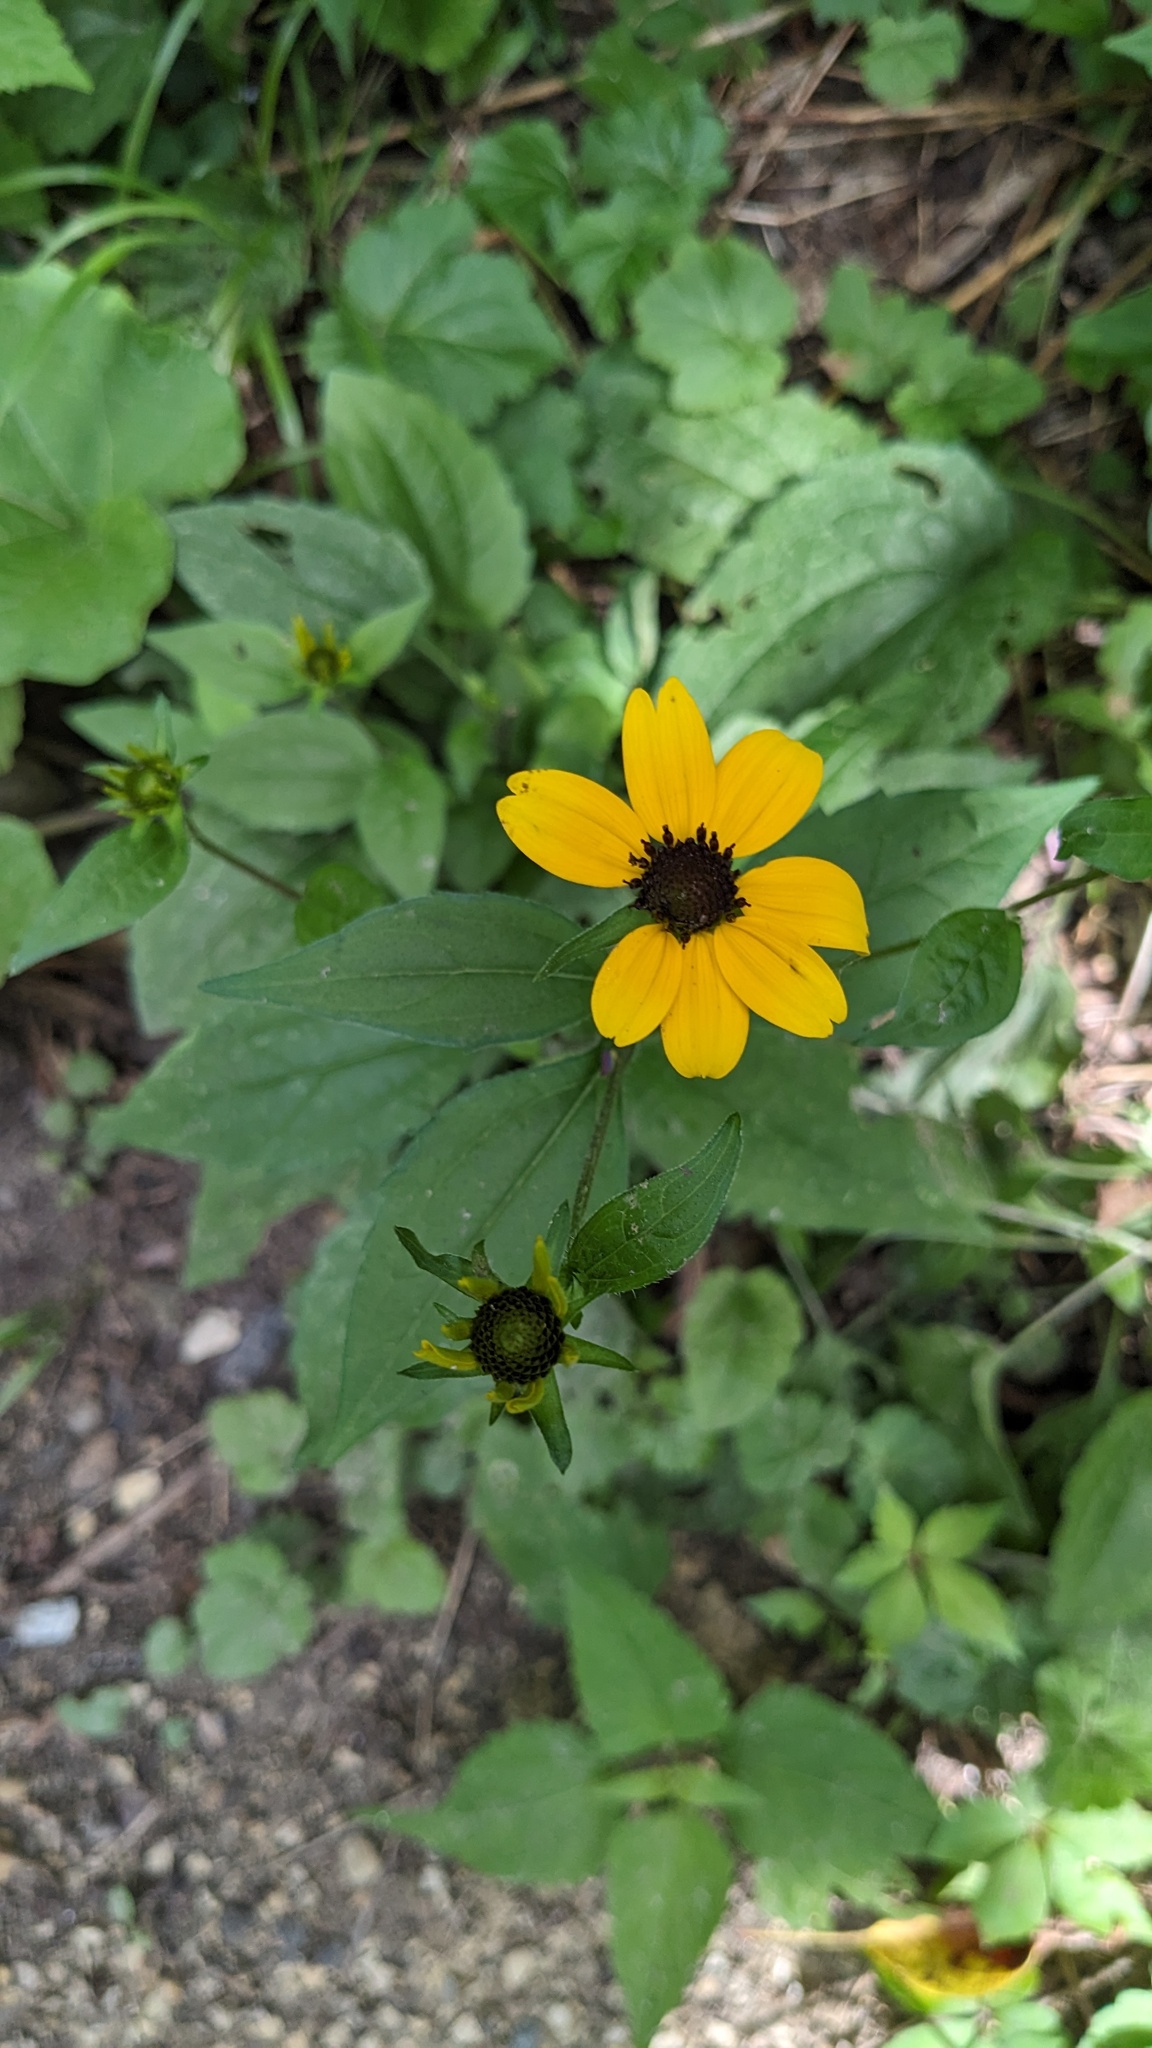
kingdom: Plantae
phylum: Tracheophyta
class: Magnoliopsida
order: Asterales
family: Asteraceae
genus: Rudbeckia
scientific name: Rudbeckia triloba
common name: Thin-leaved coneflower
